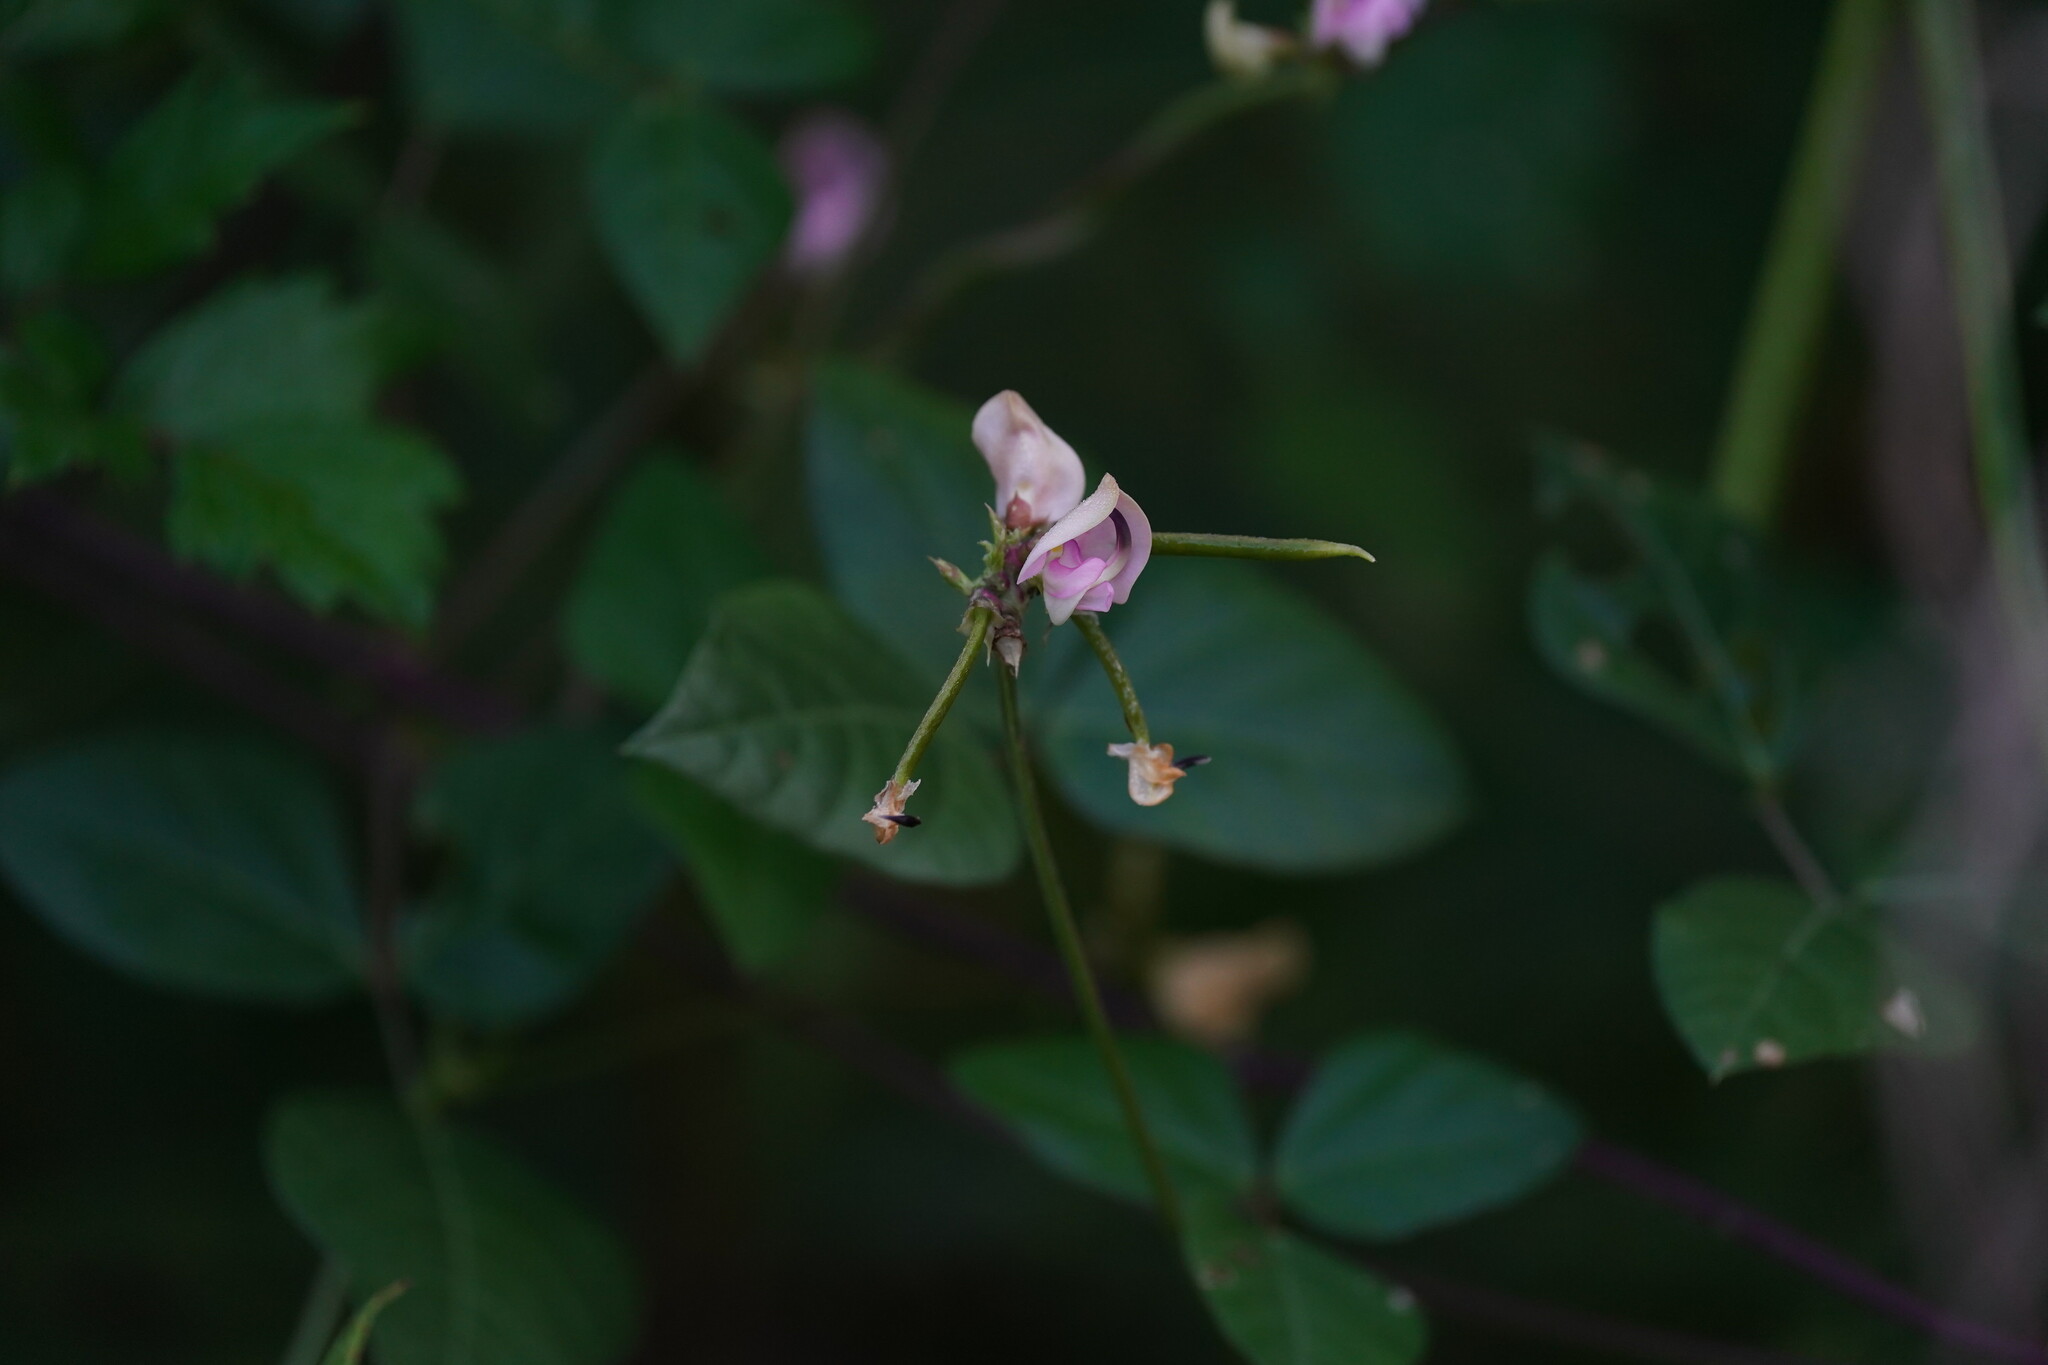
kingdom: Plantae
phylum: Tracheophyta
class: Magnoliopsida
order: Fabales
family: Fabaceae
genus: Strophostyles
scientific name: Strophostyles helvola
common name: Trailing wild bean
